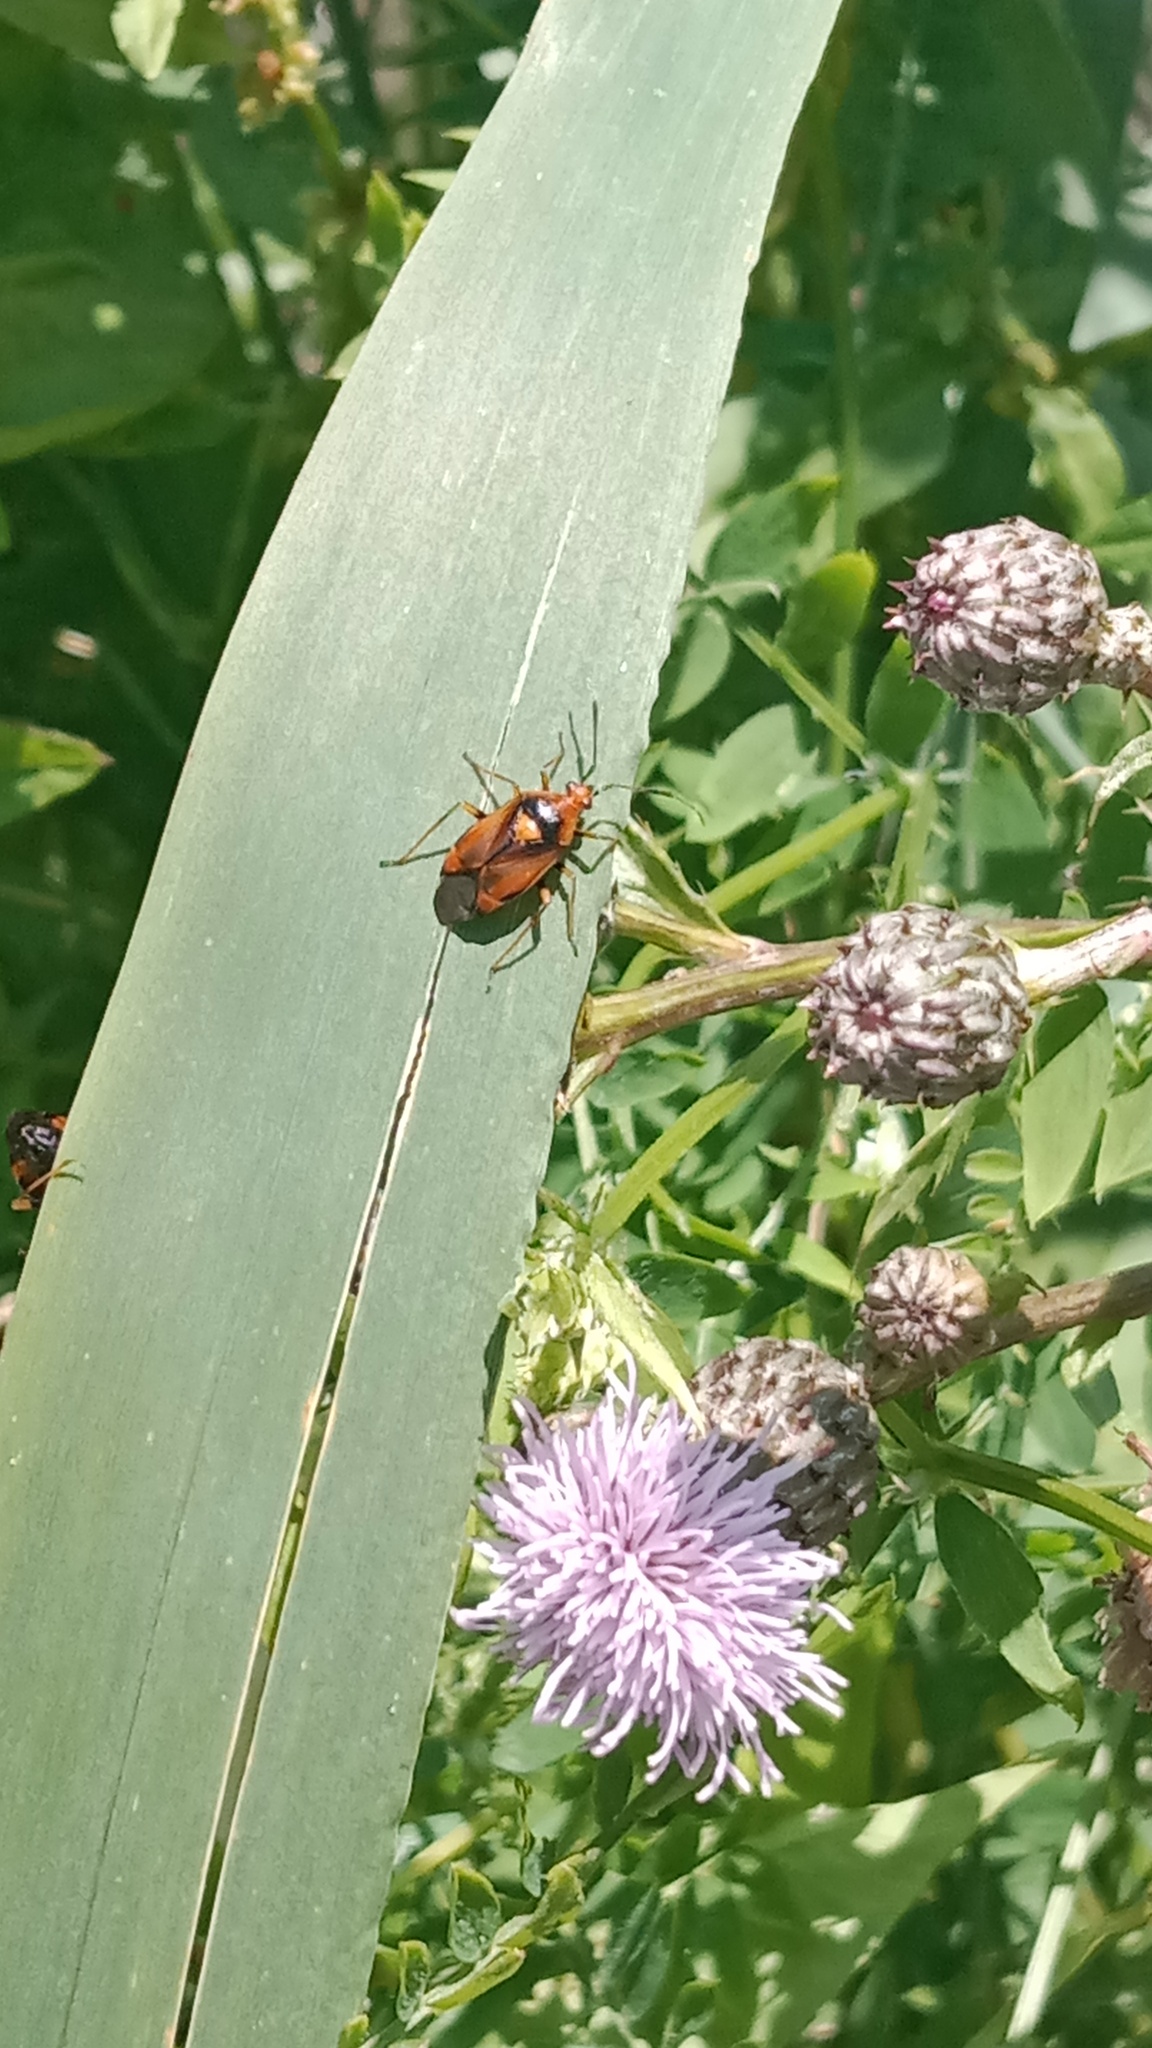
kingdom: Animalia
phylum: Arthropoda
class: Insecta
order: Hemiptera
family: Miridae
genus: Deraeocoris
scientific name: Deraeocoris ruber
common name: Plant bug
